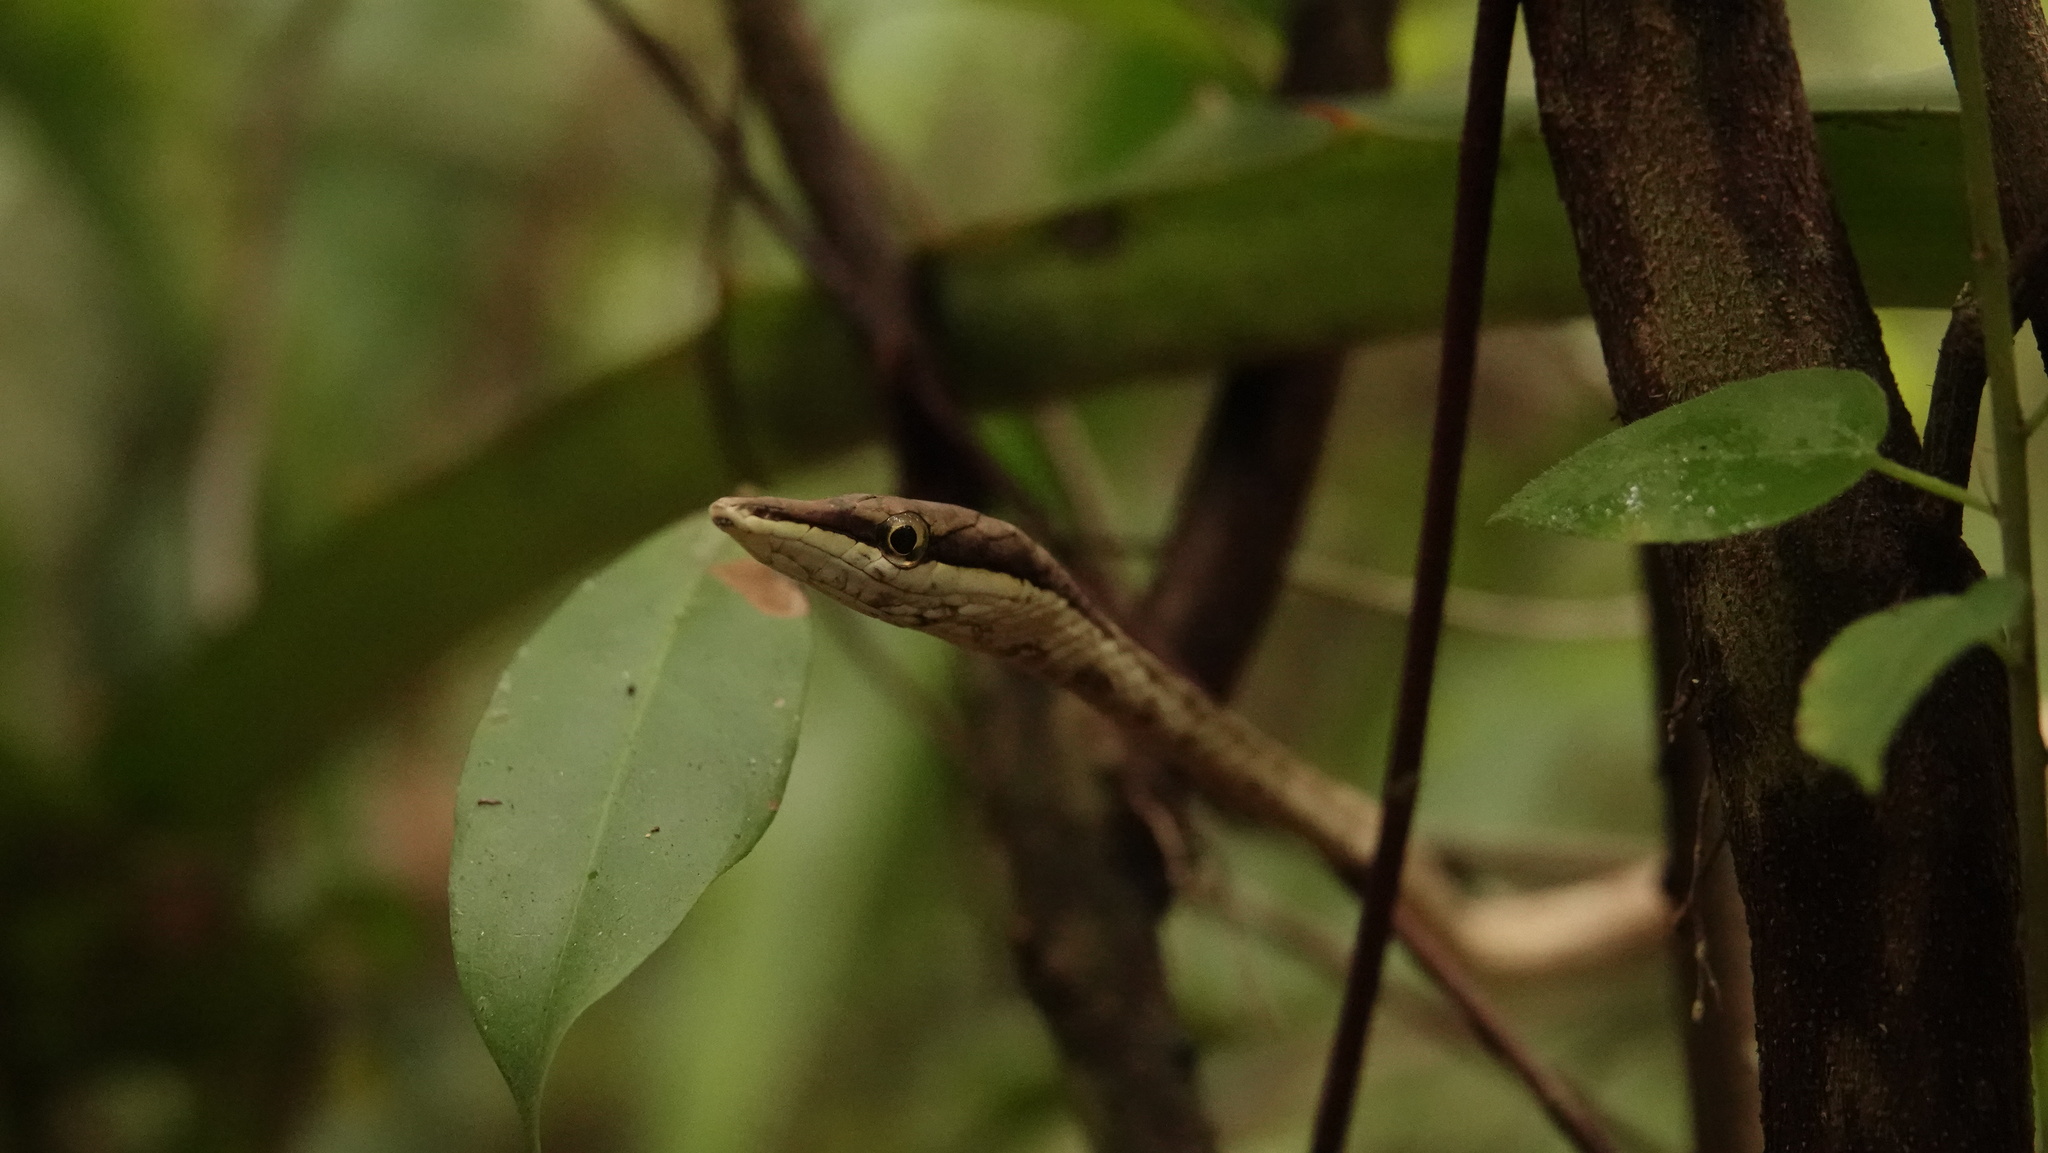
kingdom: Animalia
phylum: Chordata
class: Squamata
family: Colubridae
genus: Oxybelis
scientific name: Oxybelis potosiensis
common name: Gulf coast vine snake
